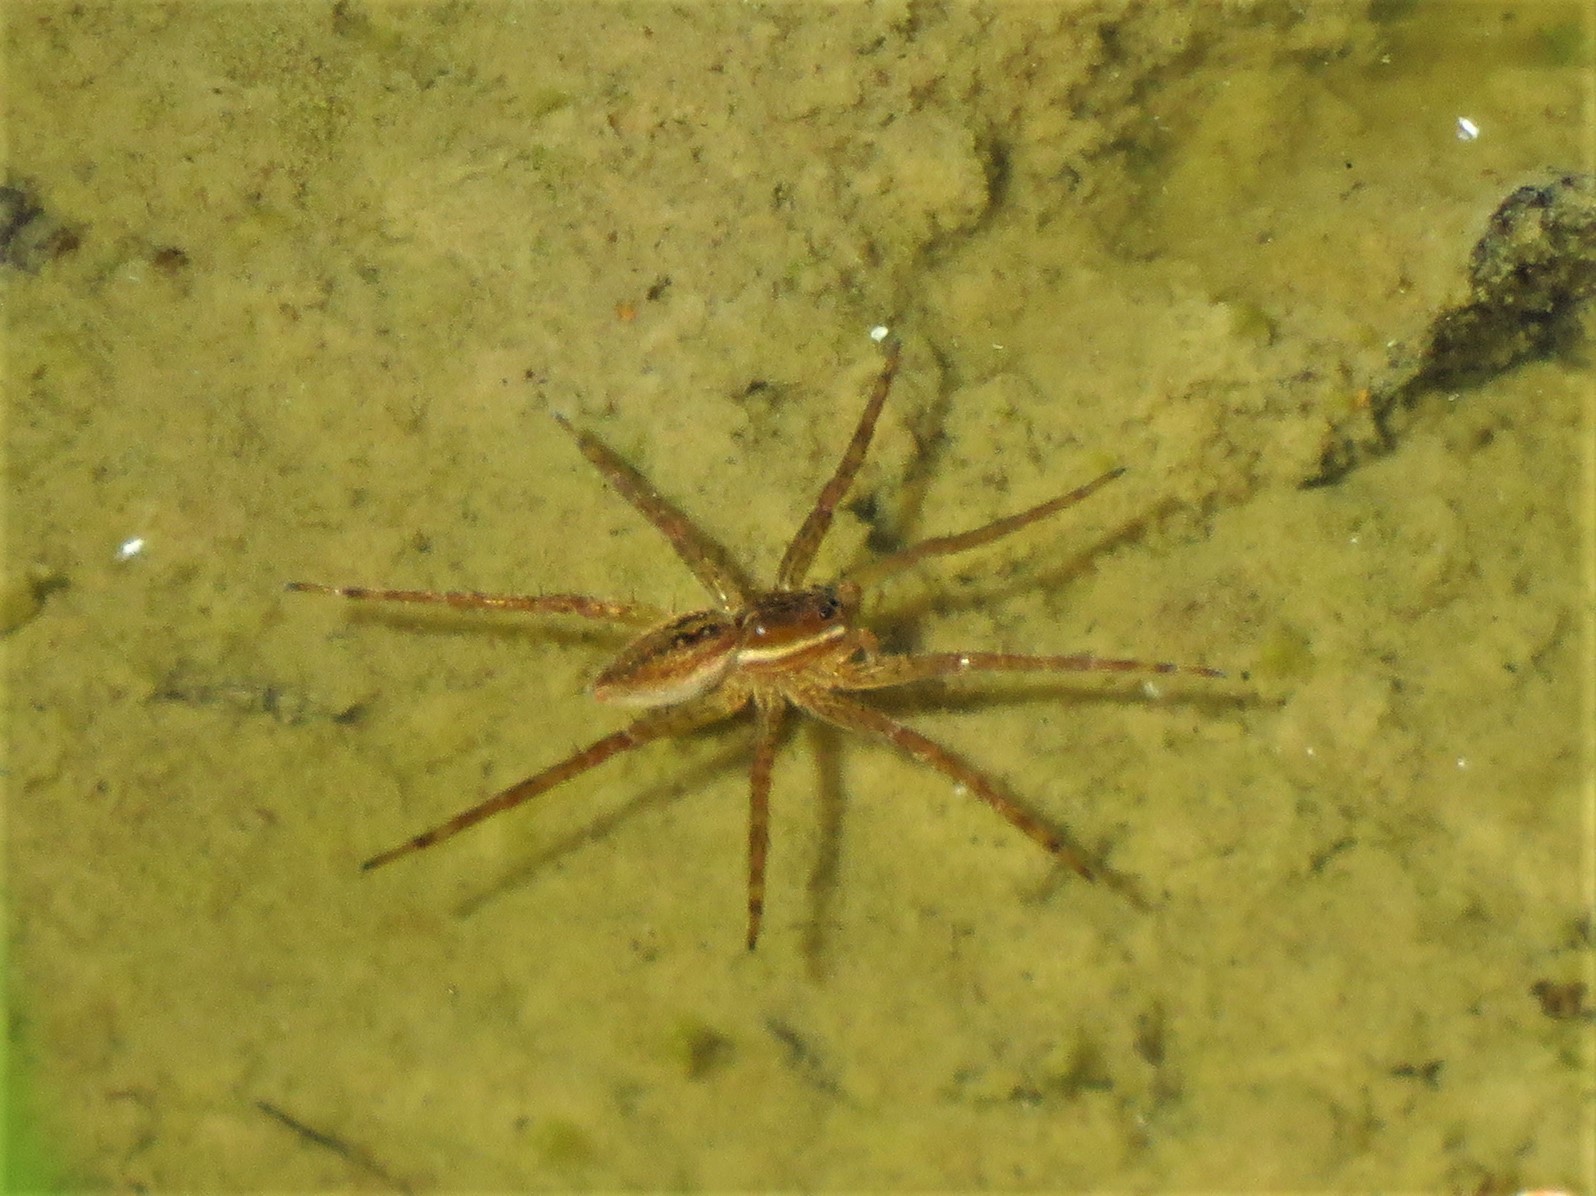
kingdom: Animalia
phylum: Arthropoda
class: Arachnida
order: Araneae
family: Pisauridae
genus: Dolomedes
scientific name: Dolomedes triton
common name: Six-spotted fishing spider
